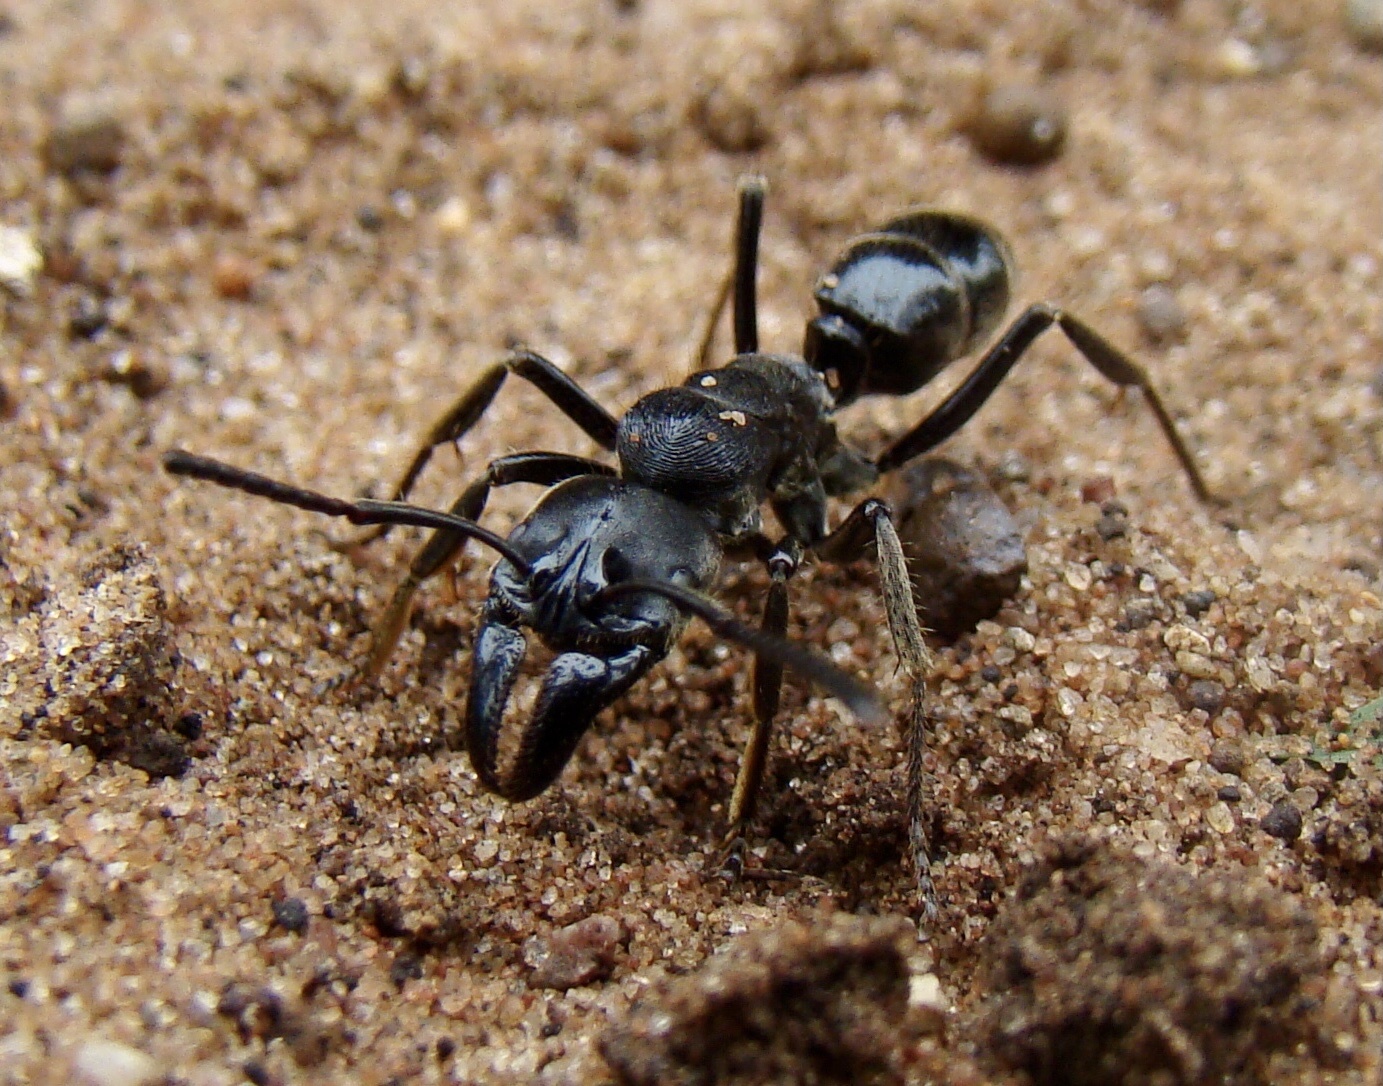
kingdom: Animalia
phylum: Arthropoda
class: Insecta
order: Hymenoptera
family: Formicidae
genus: Paltothyreus
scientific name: Paltothyreus tarsatus
